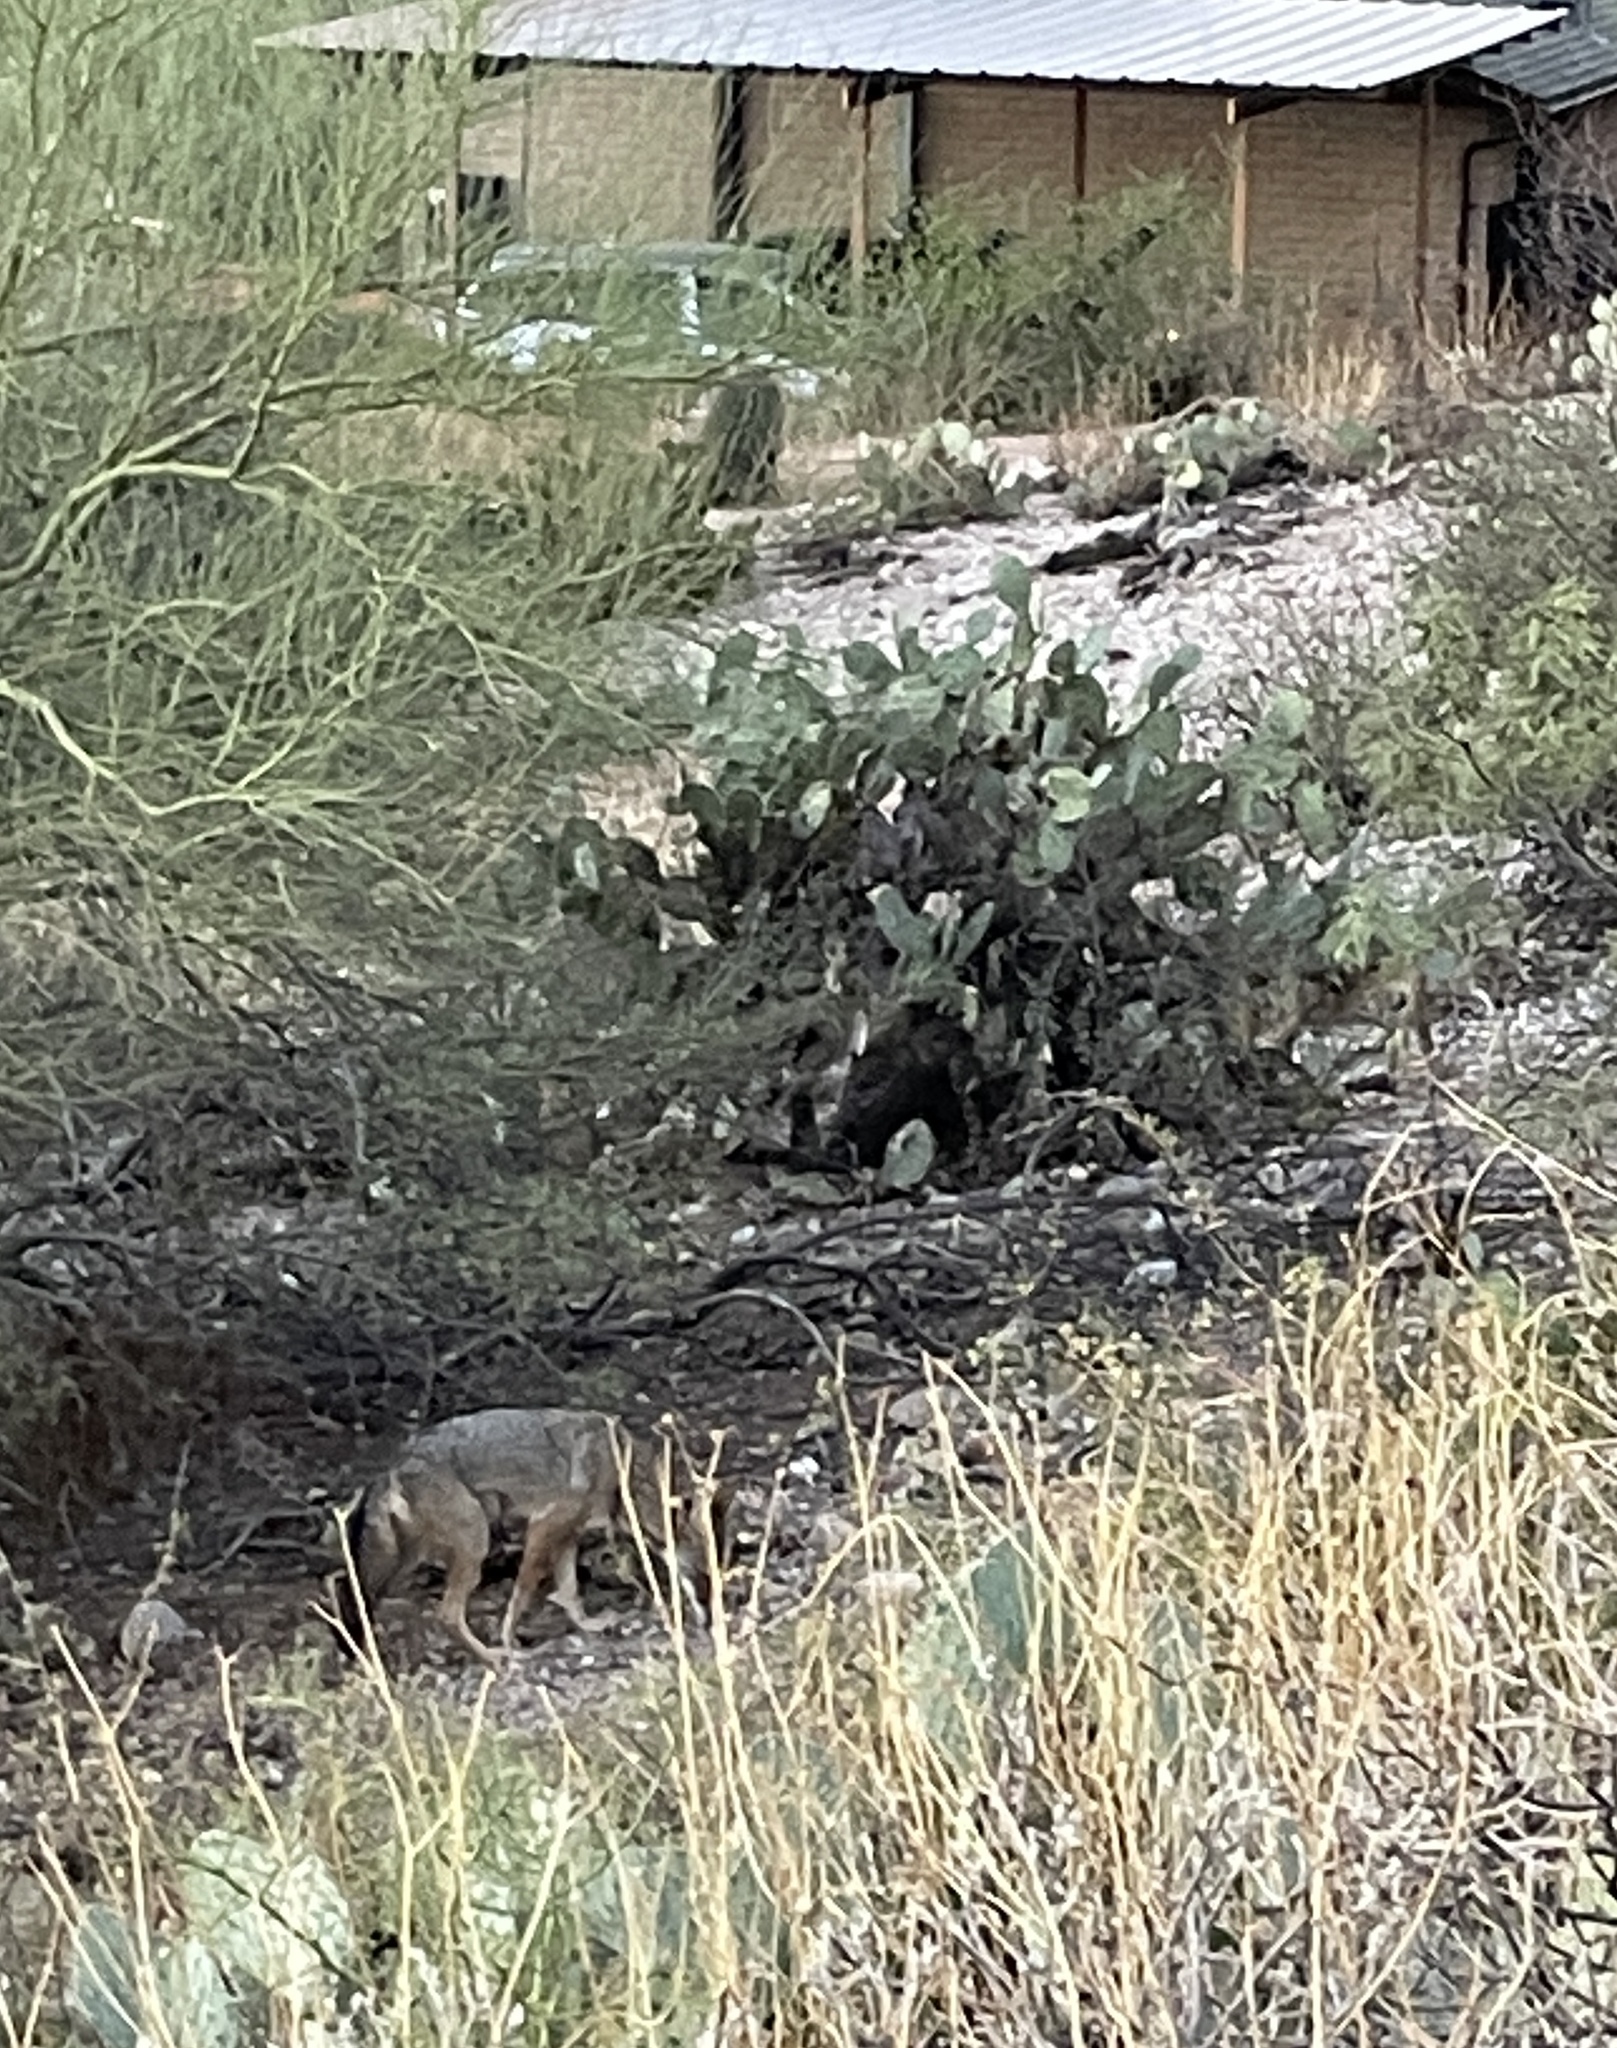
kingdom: Animalia
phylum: Chordata
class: Mammalia
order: Carnivora
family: Canidae
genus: Canis
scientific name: Canis latrans
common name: Coyote
